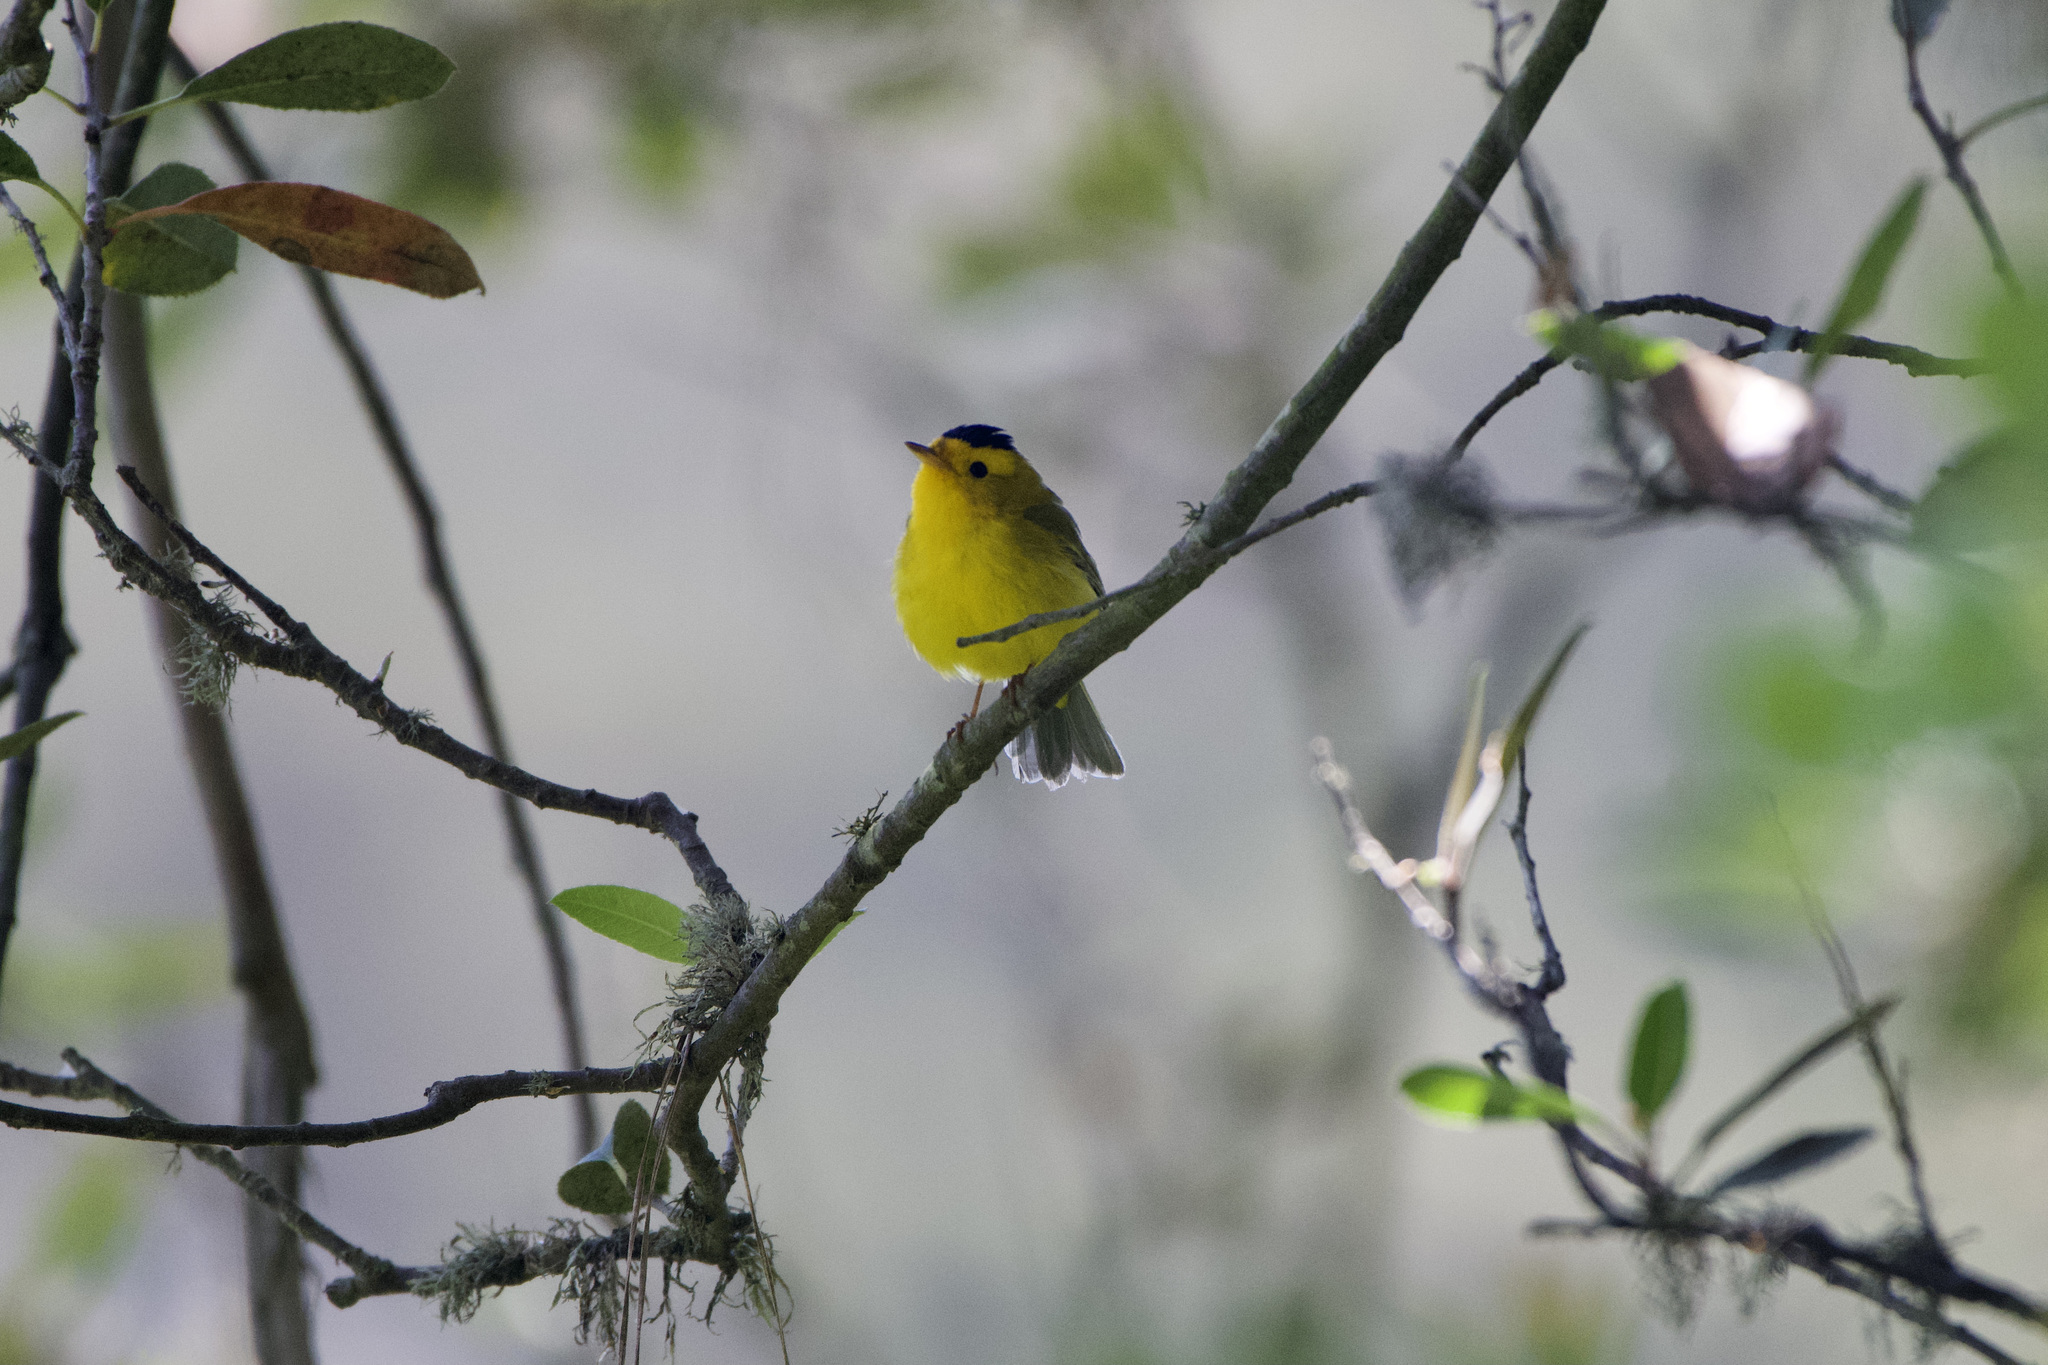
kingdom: Animalia
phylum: Chordata
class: Aves
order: Passeriformes
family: Parulidae
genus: Cardellina
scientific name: Cardellina pusilla
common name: Wilson's warbler
